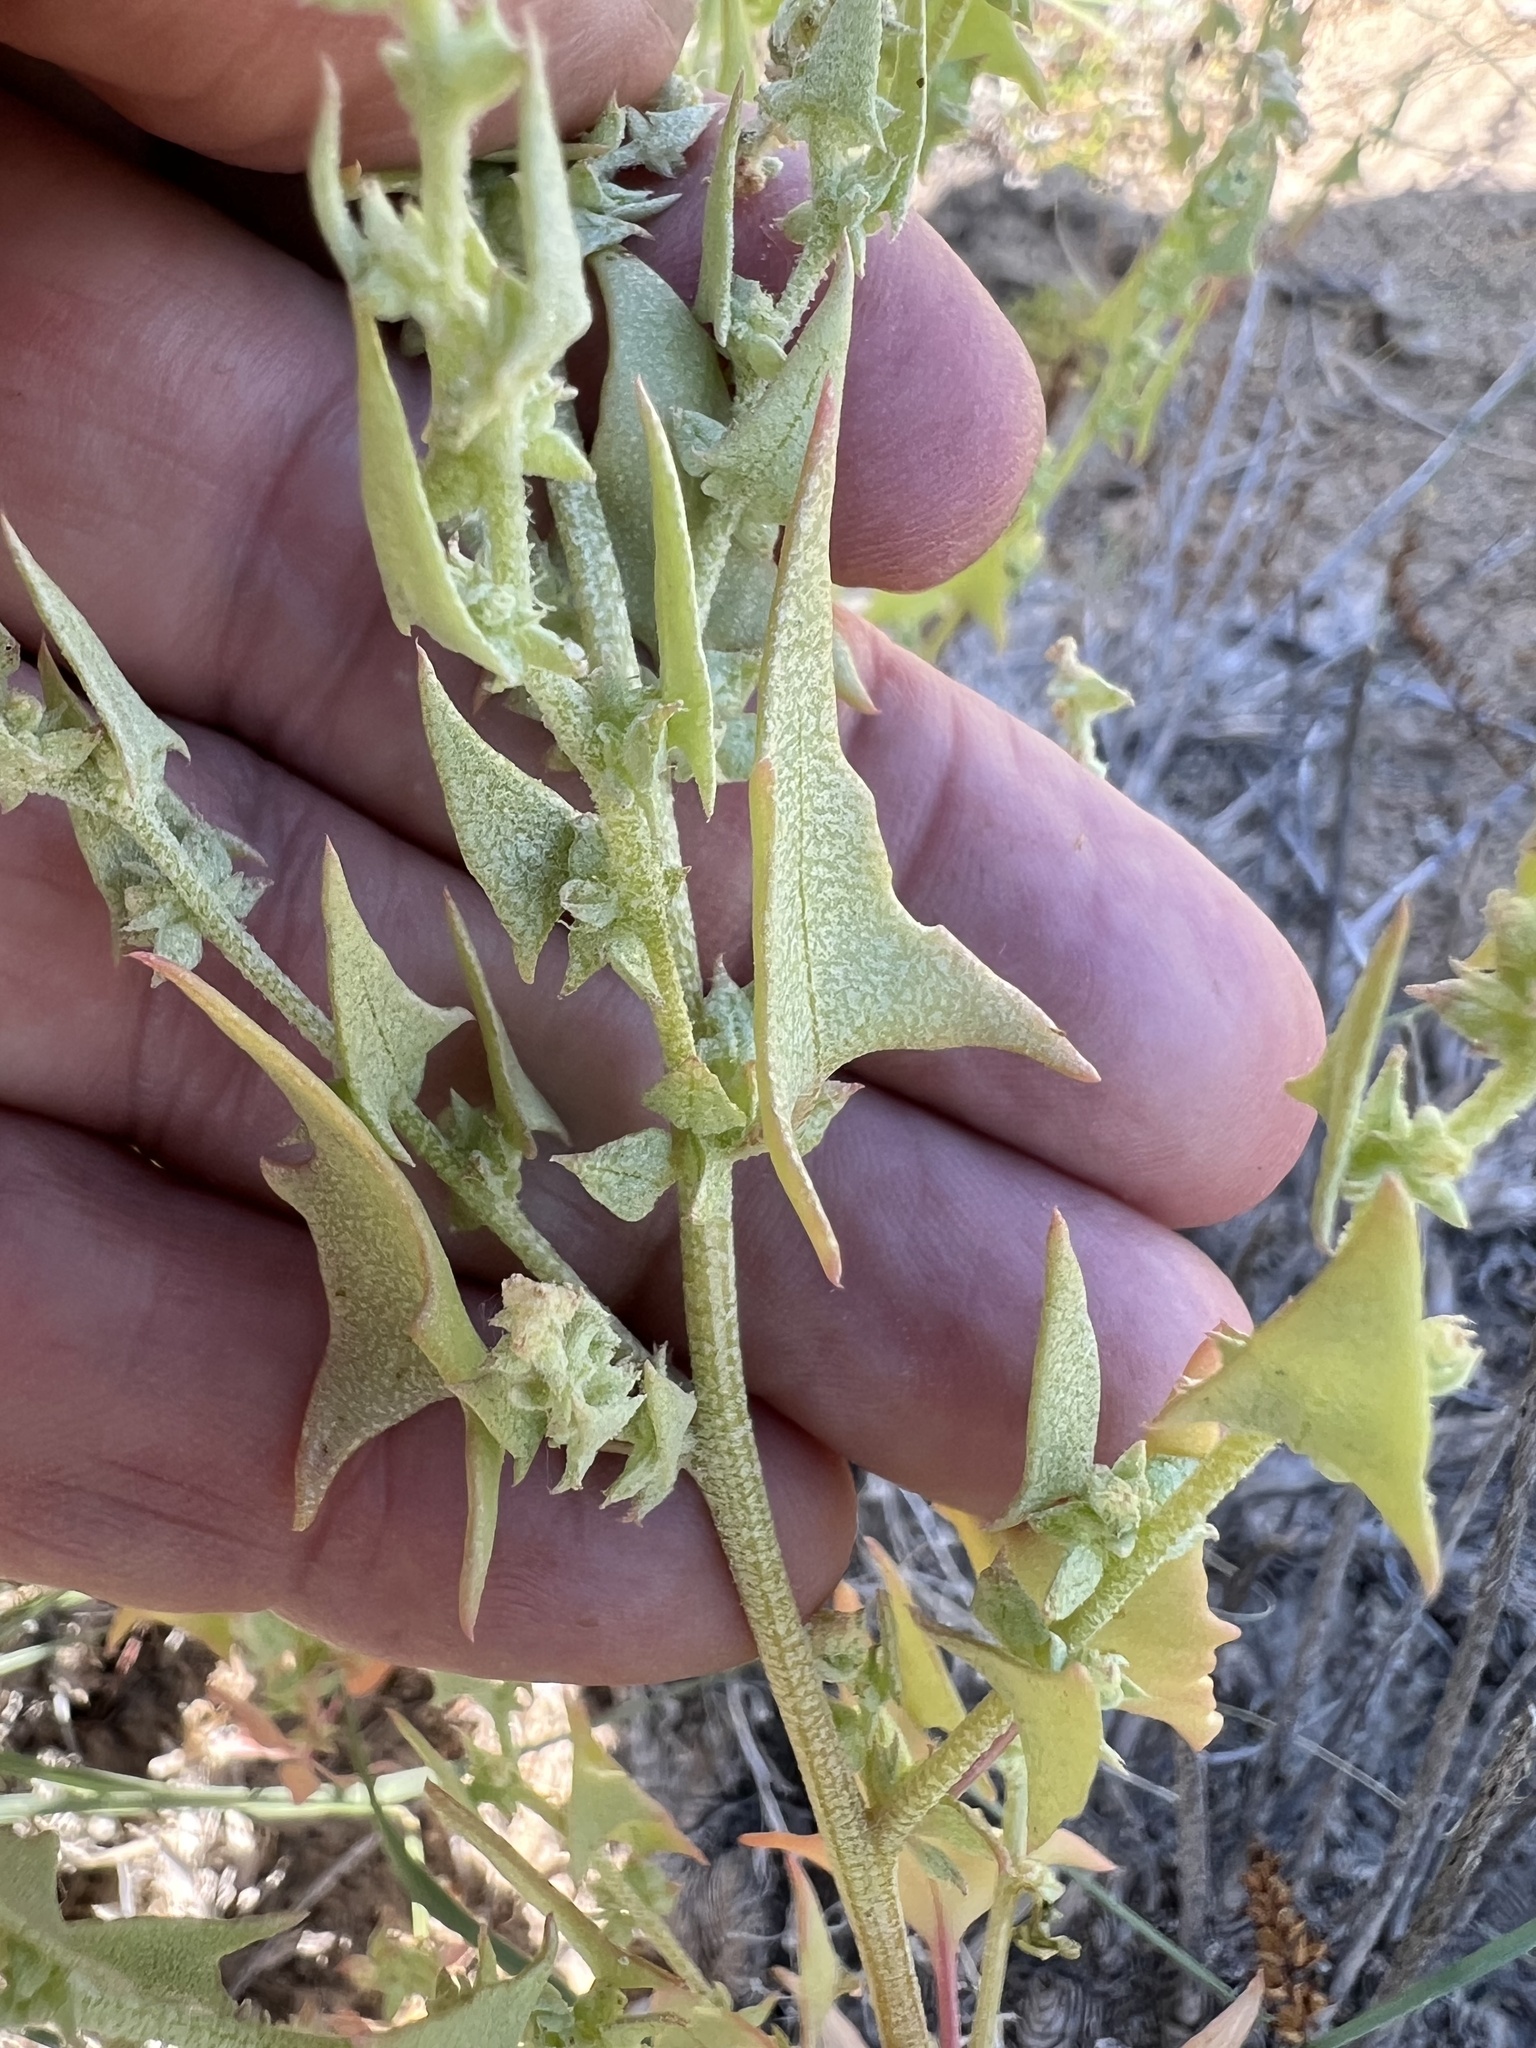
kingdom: Plantae
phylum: Tracheophyta
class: Magnoliopsida
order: Caryophyllales
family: Amaranthaceae
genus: Stutzia
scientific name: Stutzia covillei
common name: Coville's orach
